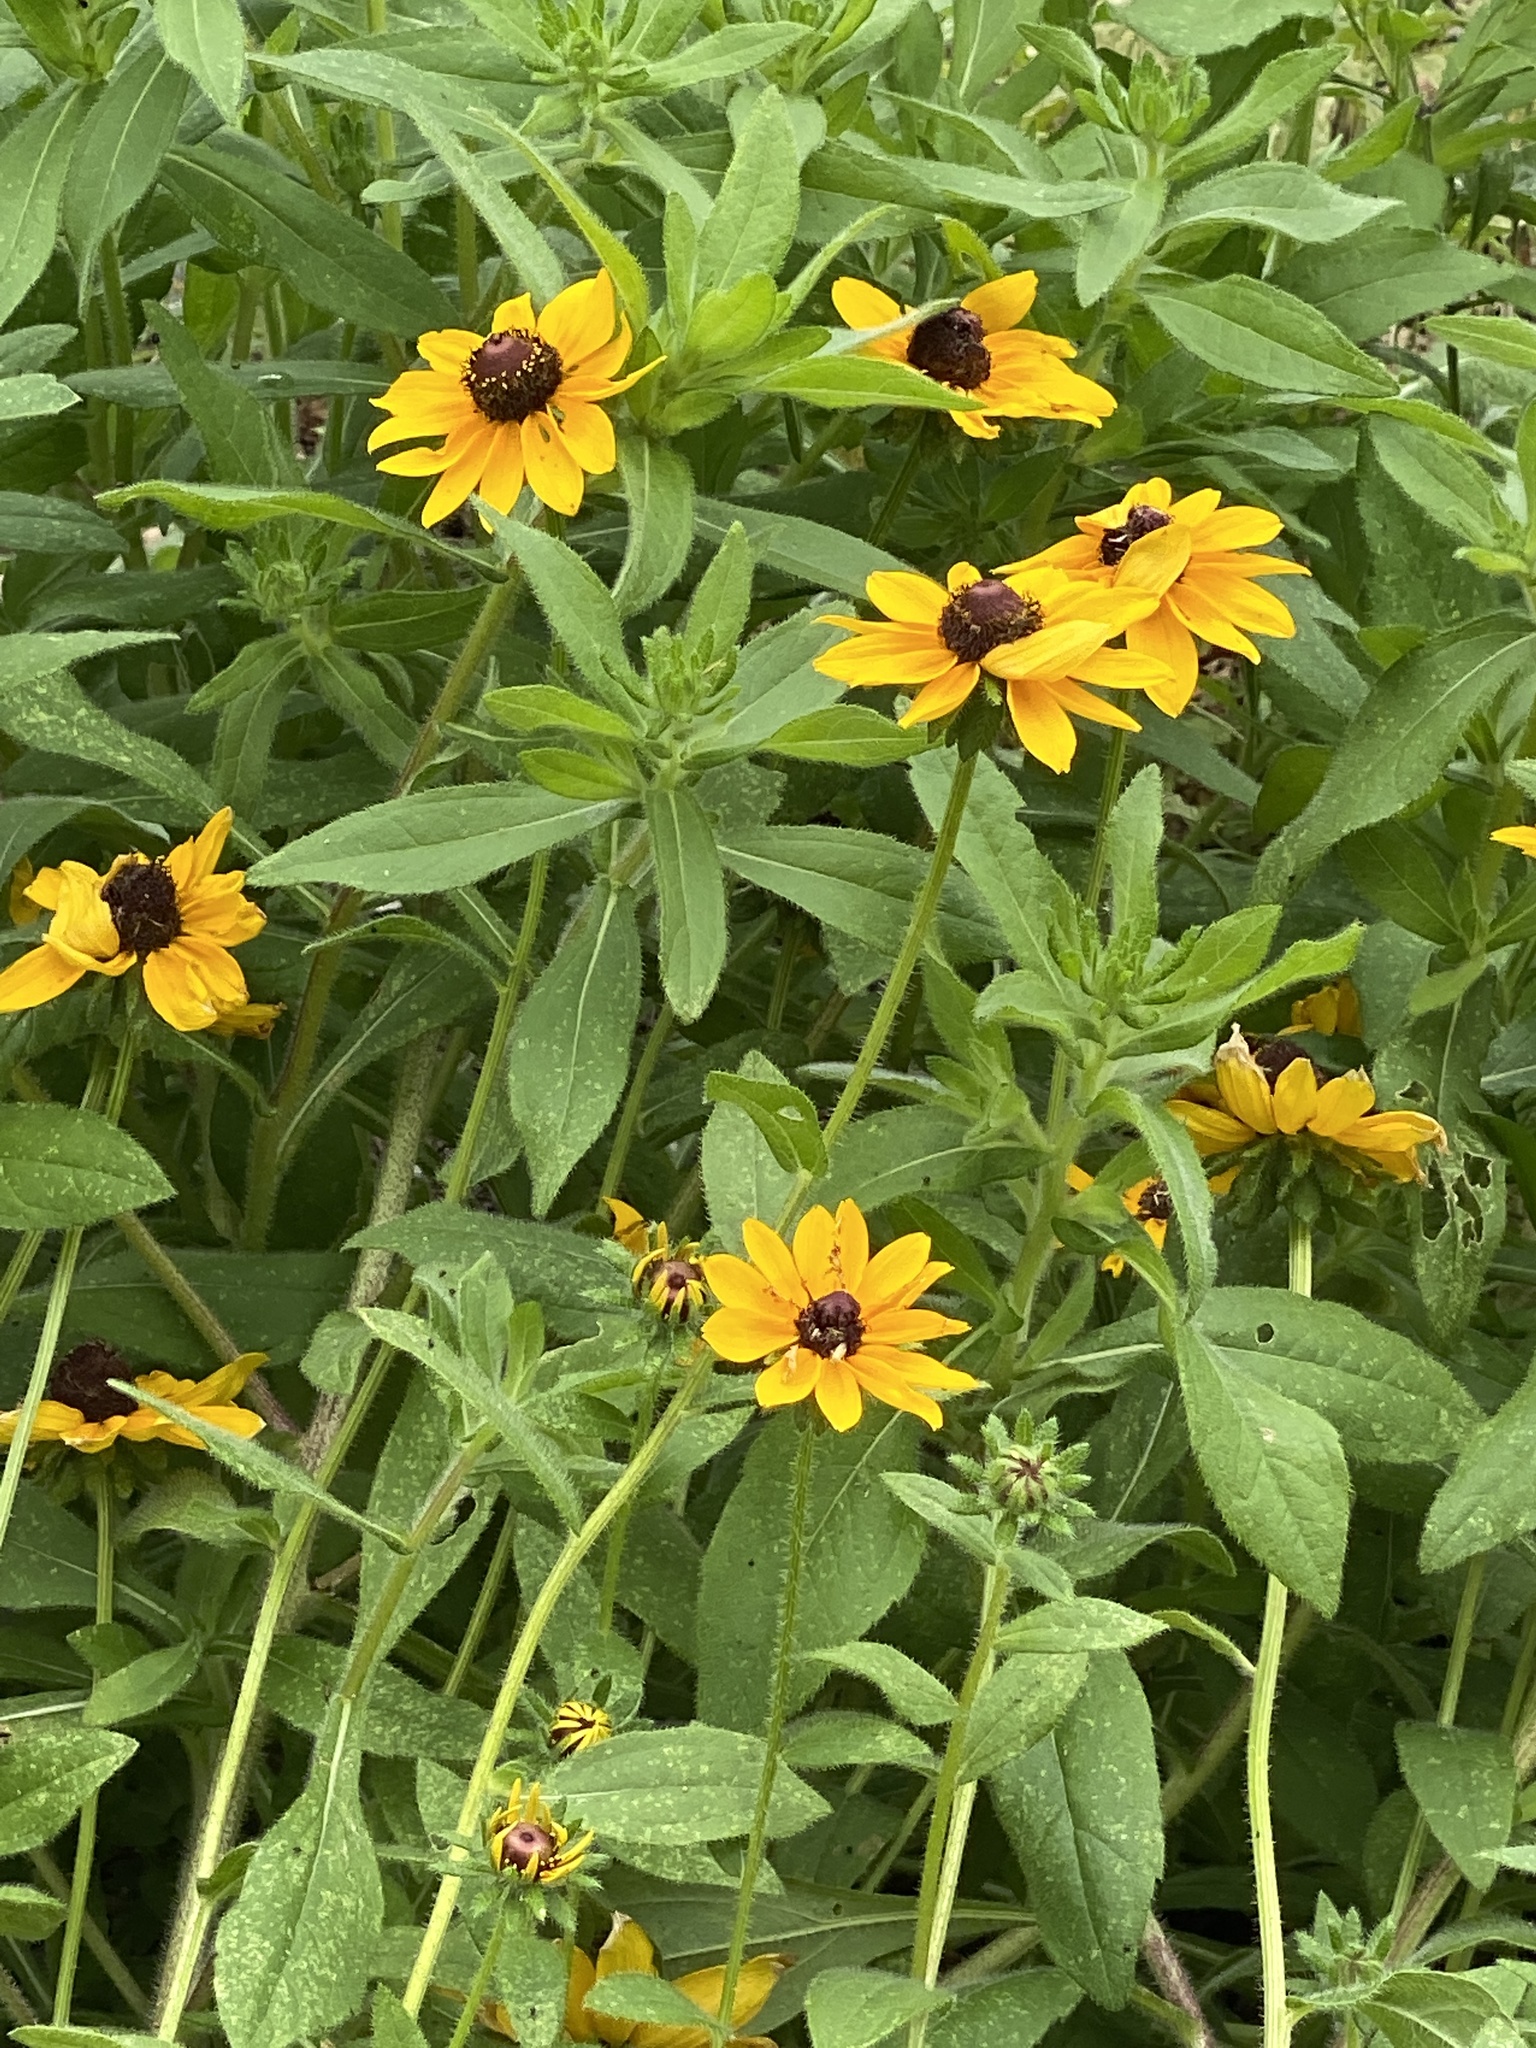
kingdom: Plantae
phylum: Tracheophyta
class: Magnoliopsida
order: Asterales
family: Asteraceae
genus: Rudbeckia
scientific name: Rudbeckia hirta
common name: Black-eyed-susan
